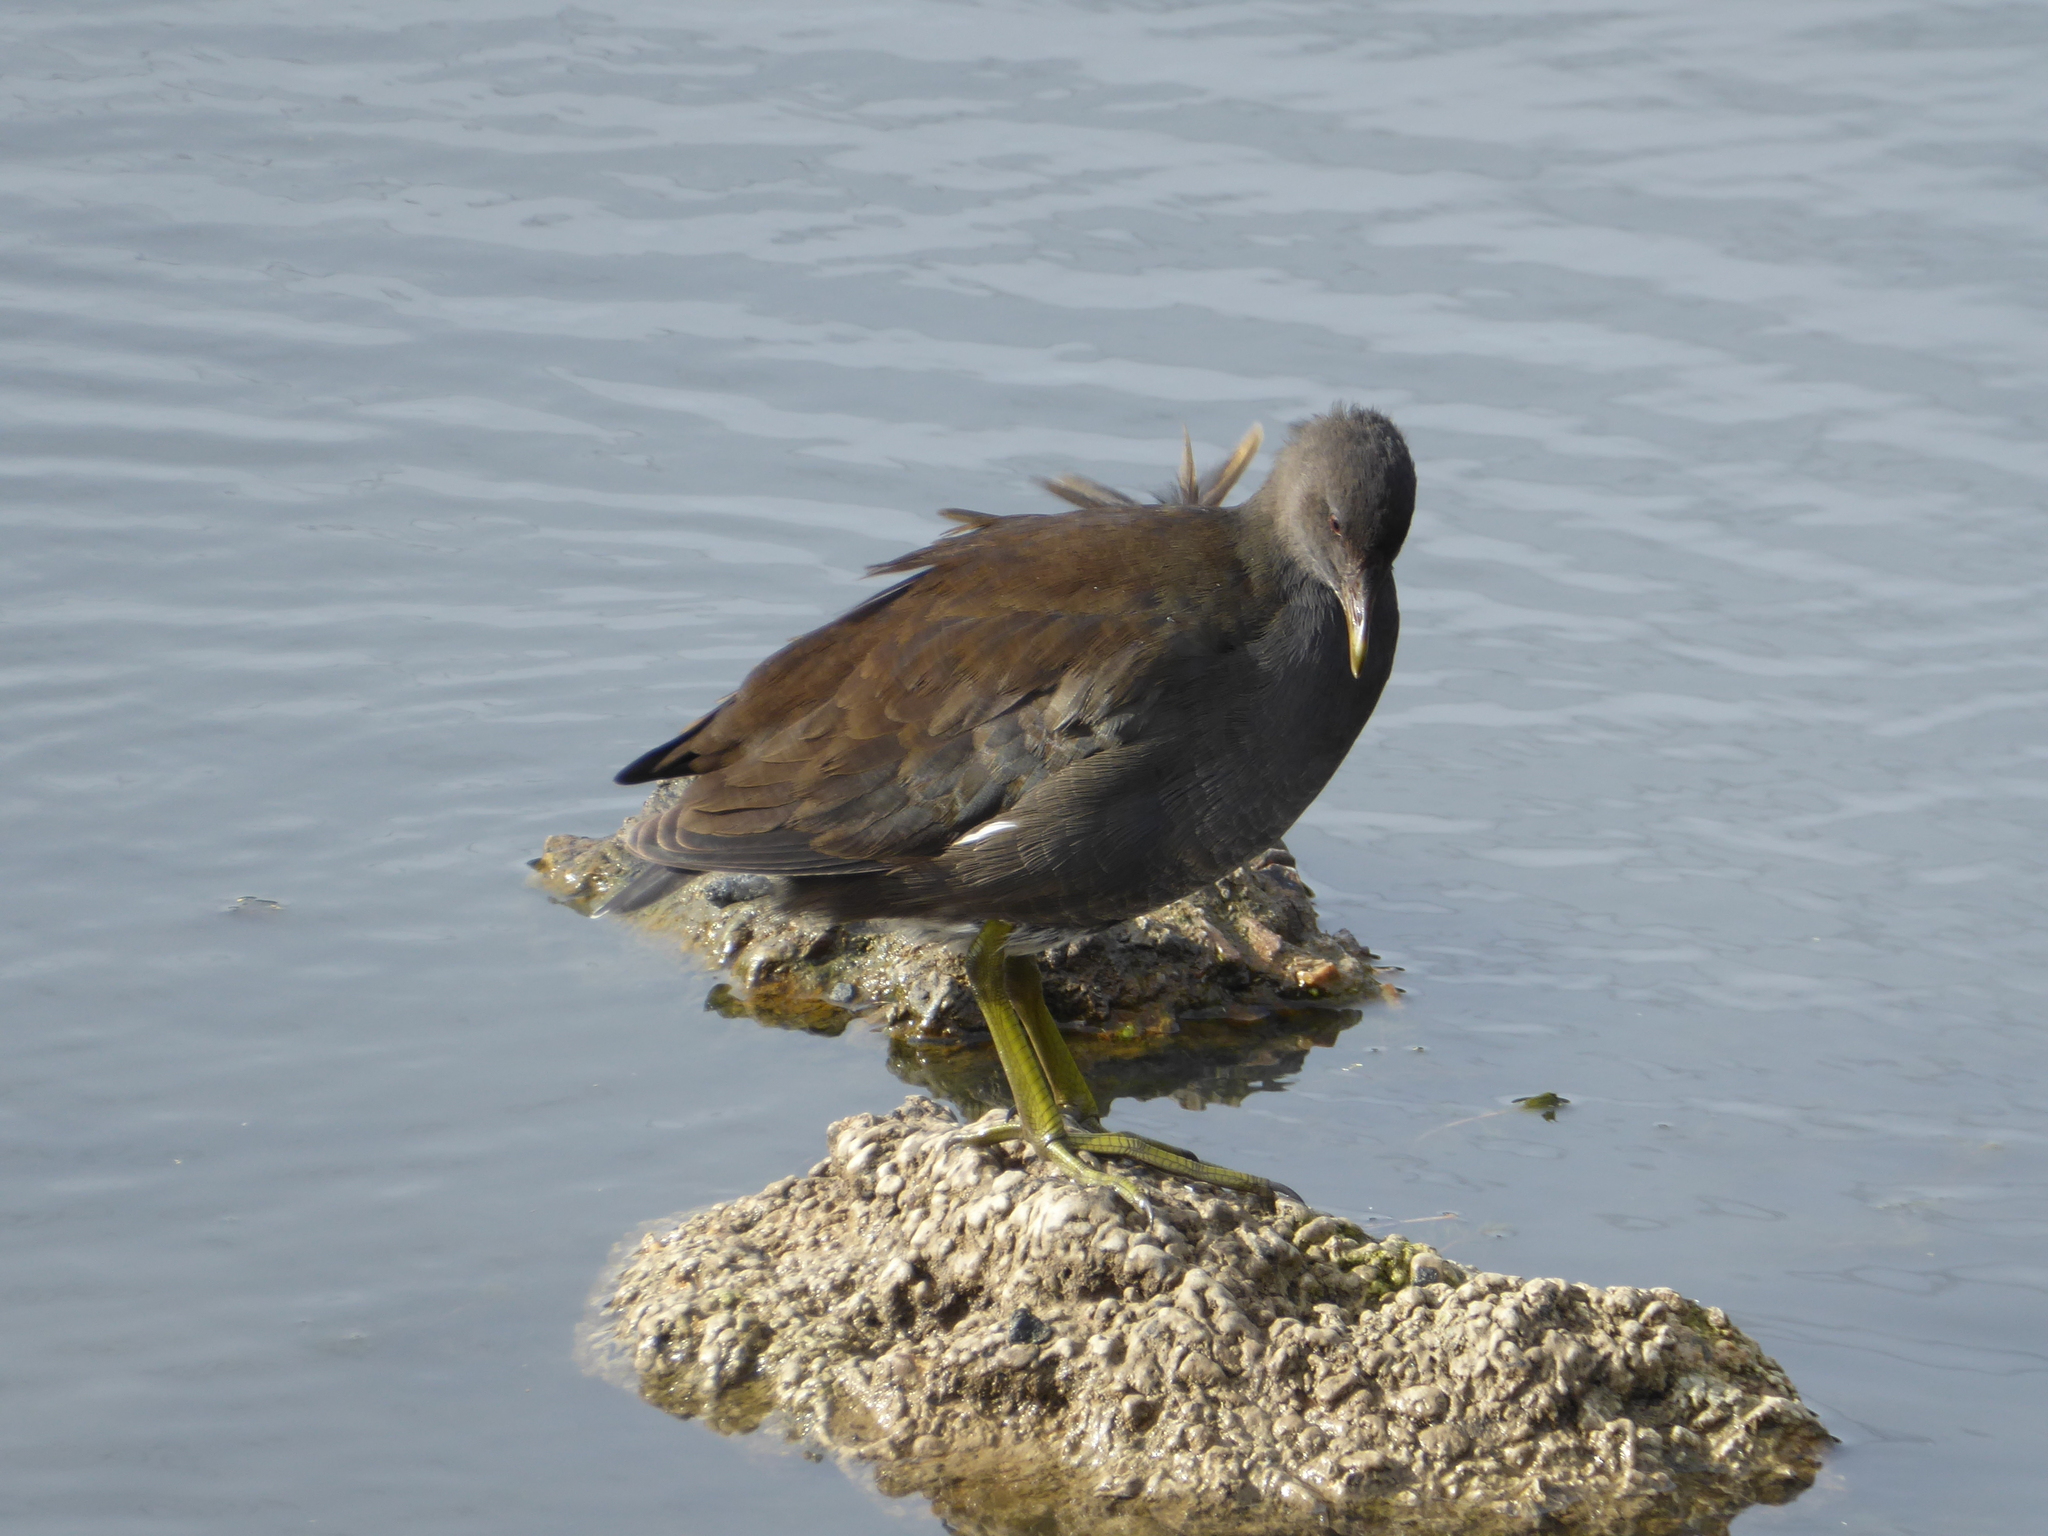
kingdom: Animalia
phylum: Chordata
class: Aves
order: Gruiformes
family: Rallidae
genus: Gallinula
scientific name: Gallinula chloropus
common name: Common moorhen
